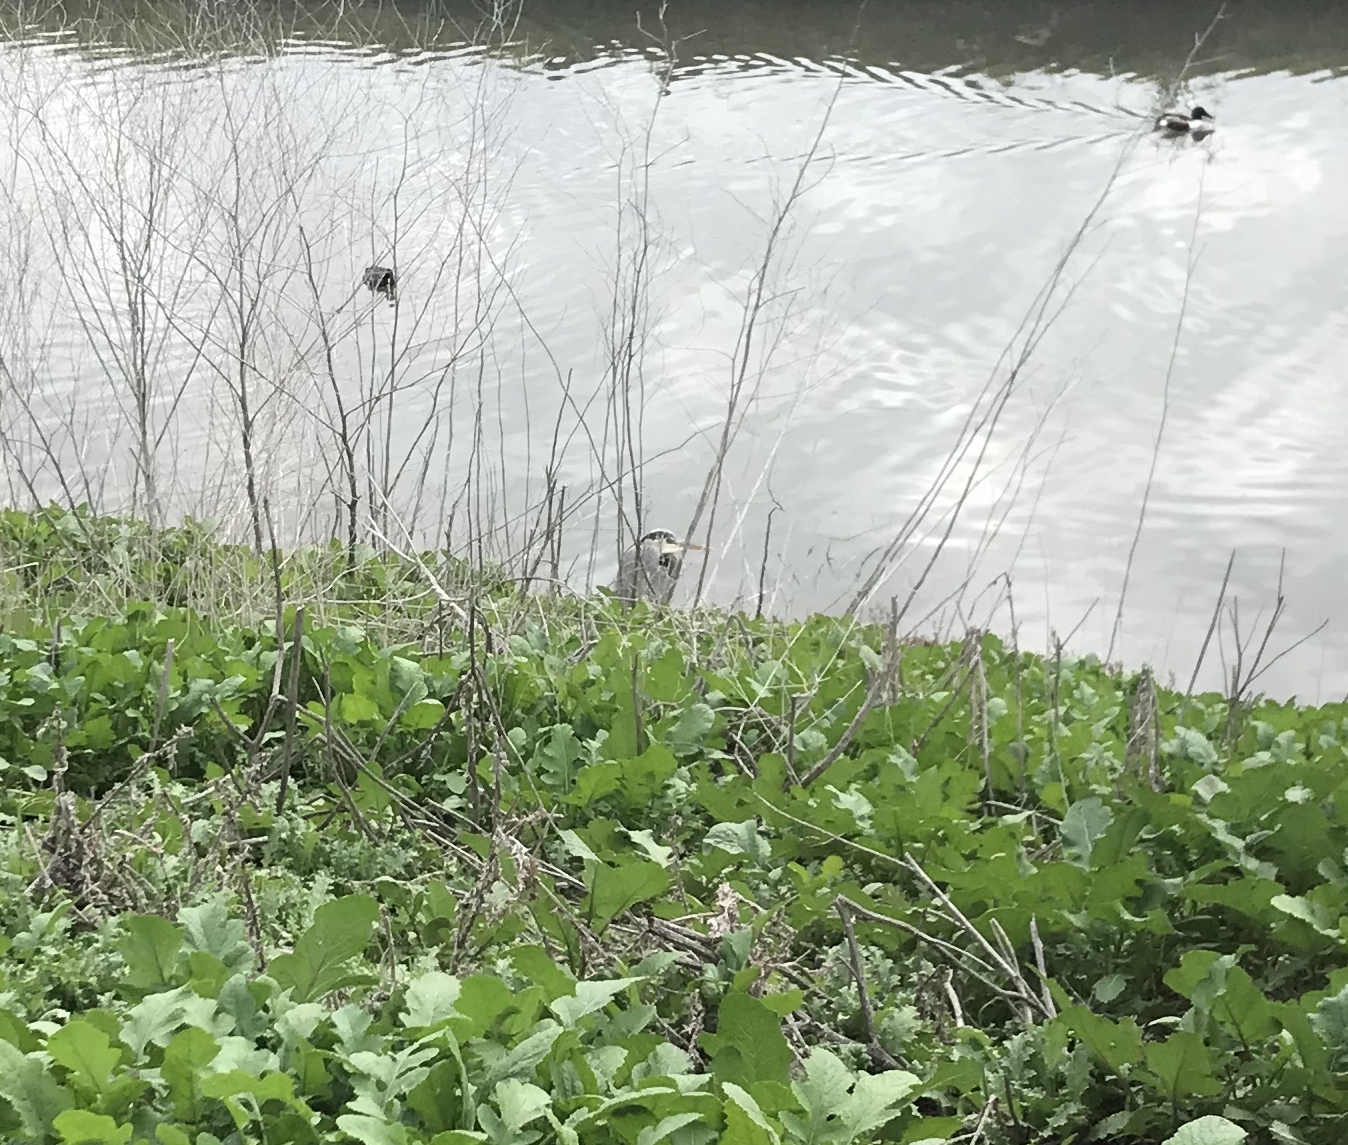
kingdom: Animalia
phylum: Chordata
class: Aves
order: Pelecaniformes
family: Ardeidae
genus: Ardea
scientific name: Ardea herodias
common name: Great blue heron
